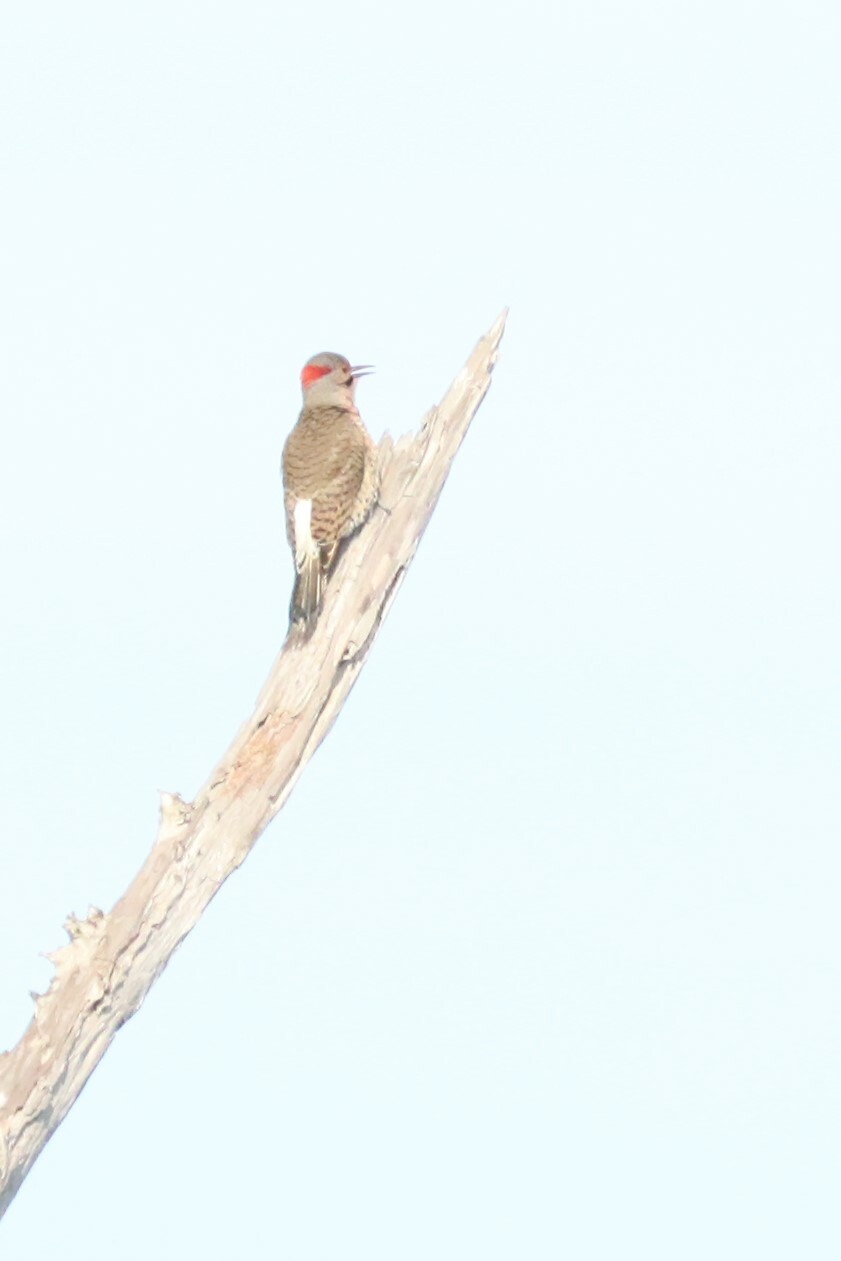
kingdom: Animalia
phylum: Chordata
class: Aves
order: Piciformes
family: Picidae
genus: Colaptes
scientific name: Colaptes auratus
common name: Northern flicker
